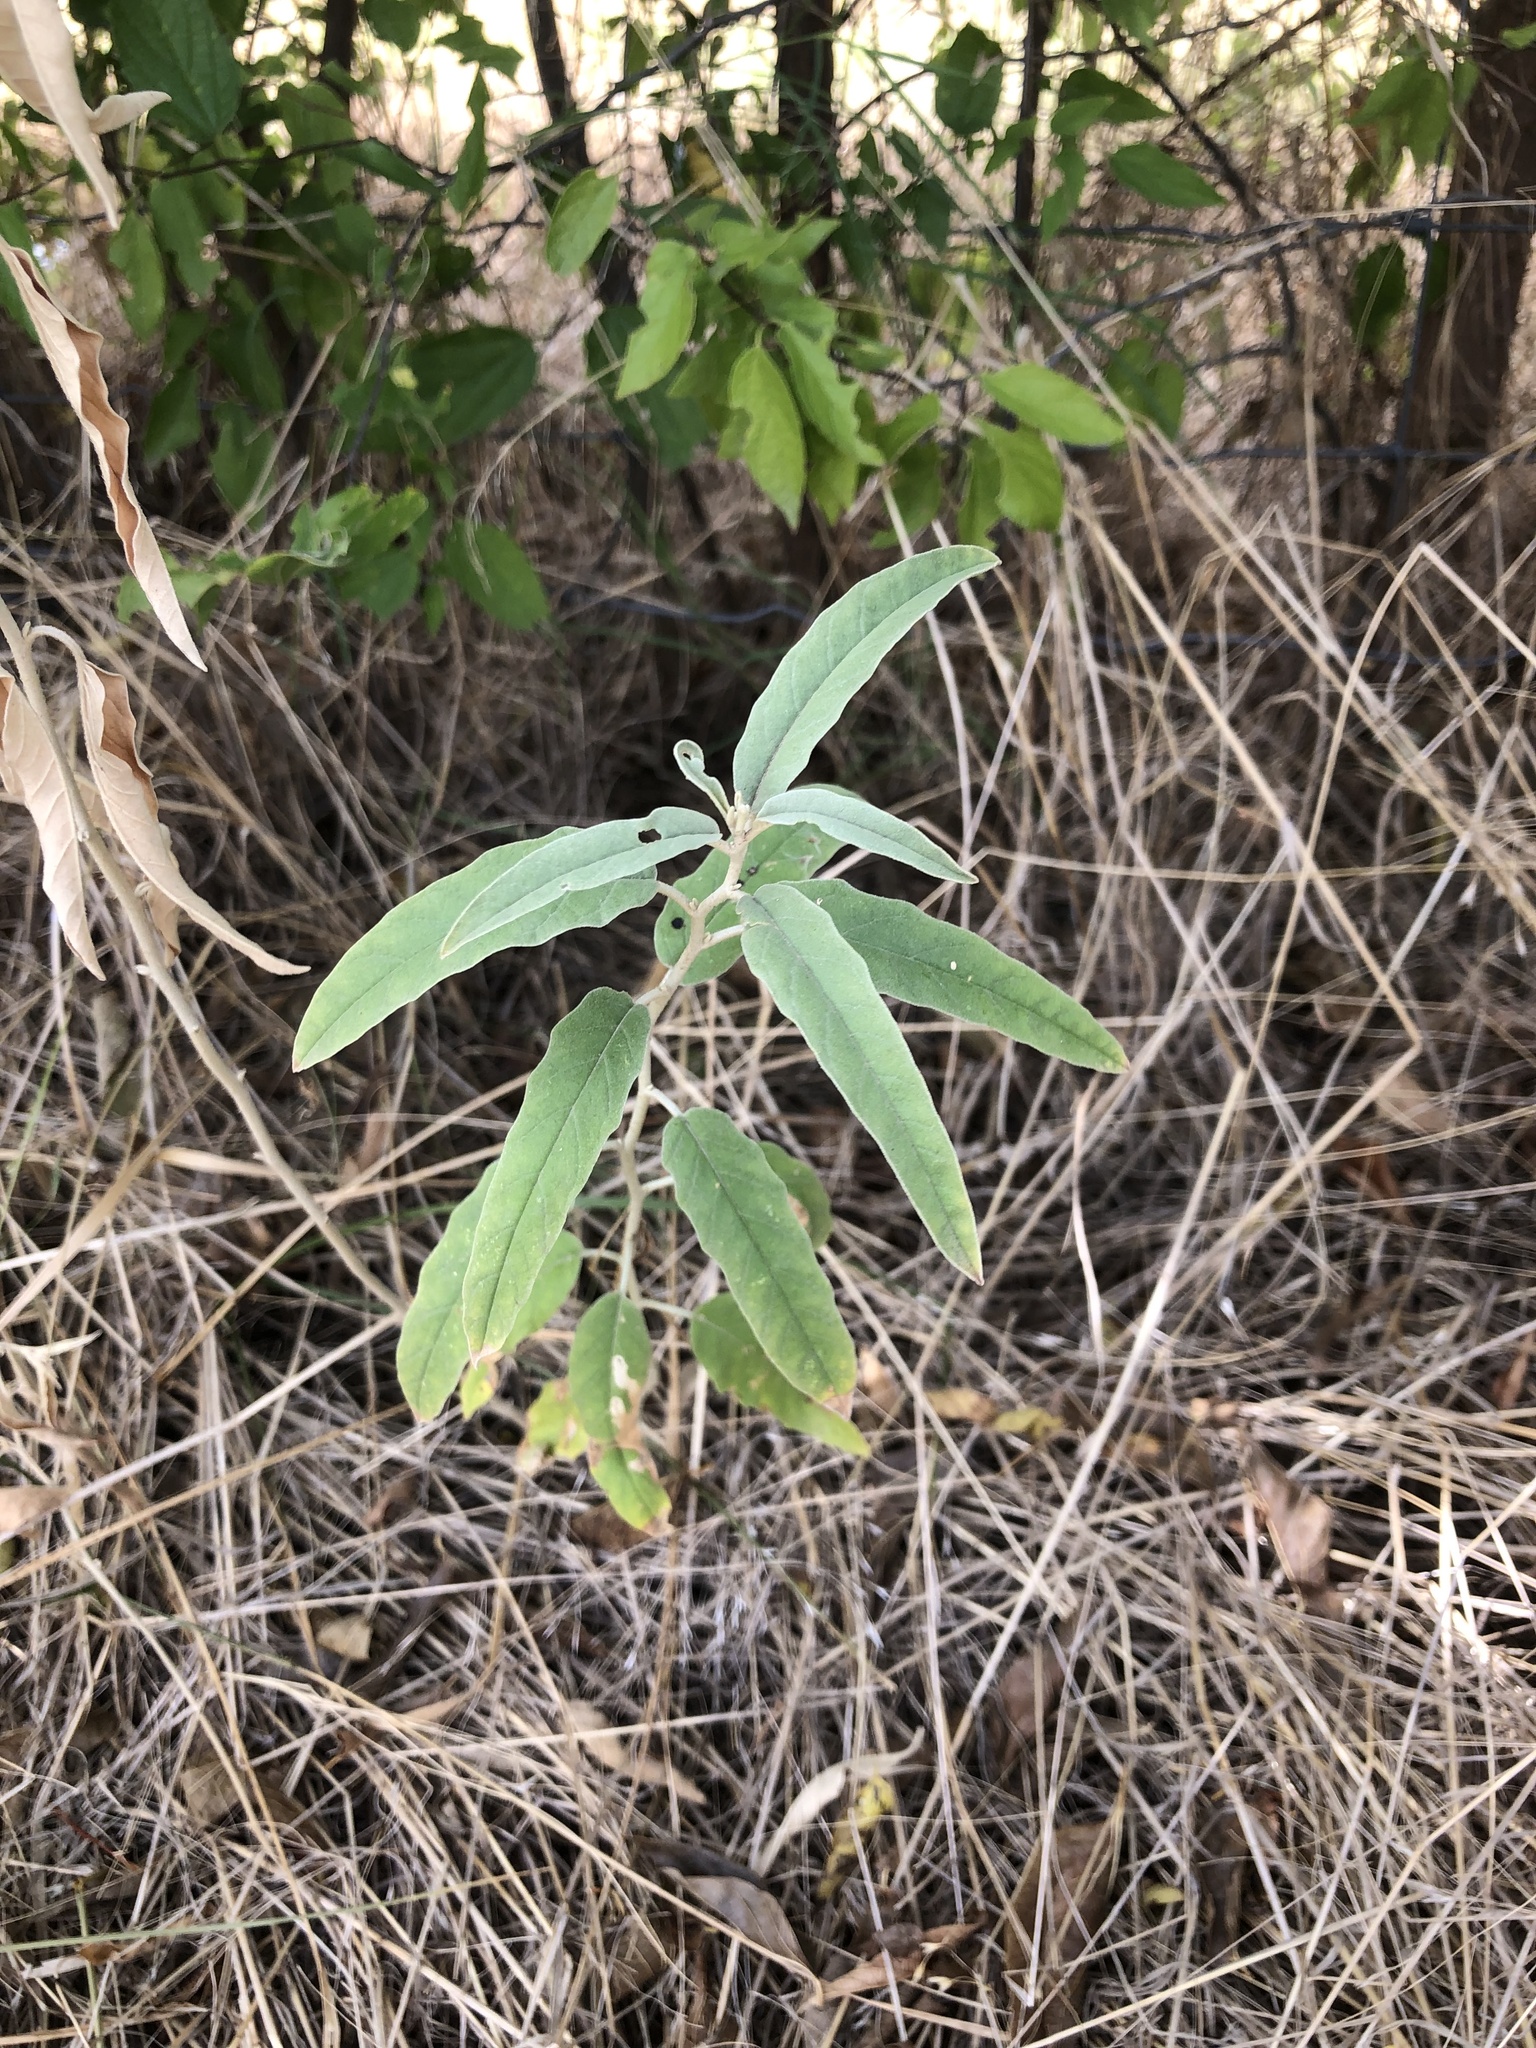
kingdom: Plantae
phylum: Tracheophyta
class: Magnoliopsida
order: Solanales
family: Solanaceae
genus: Solanum
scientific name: Solanum elaeagnifolium
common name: Silverleaf nightshade
